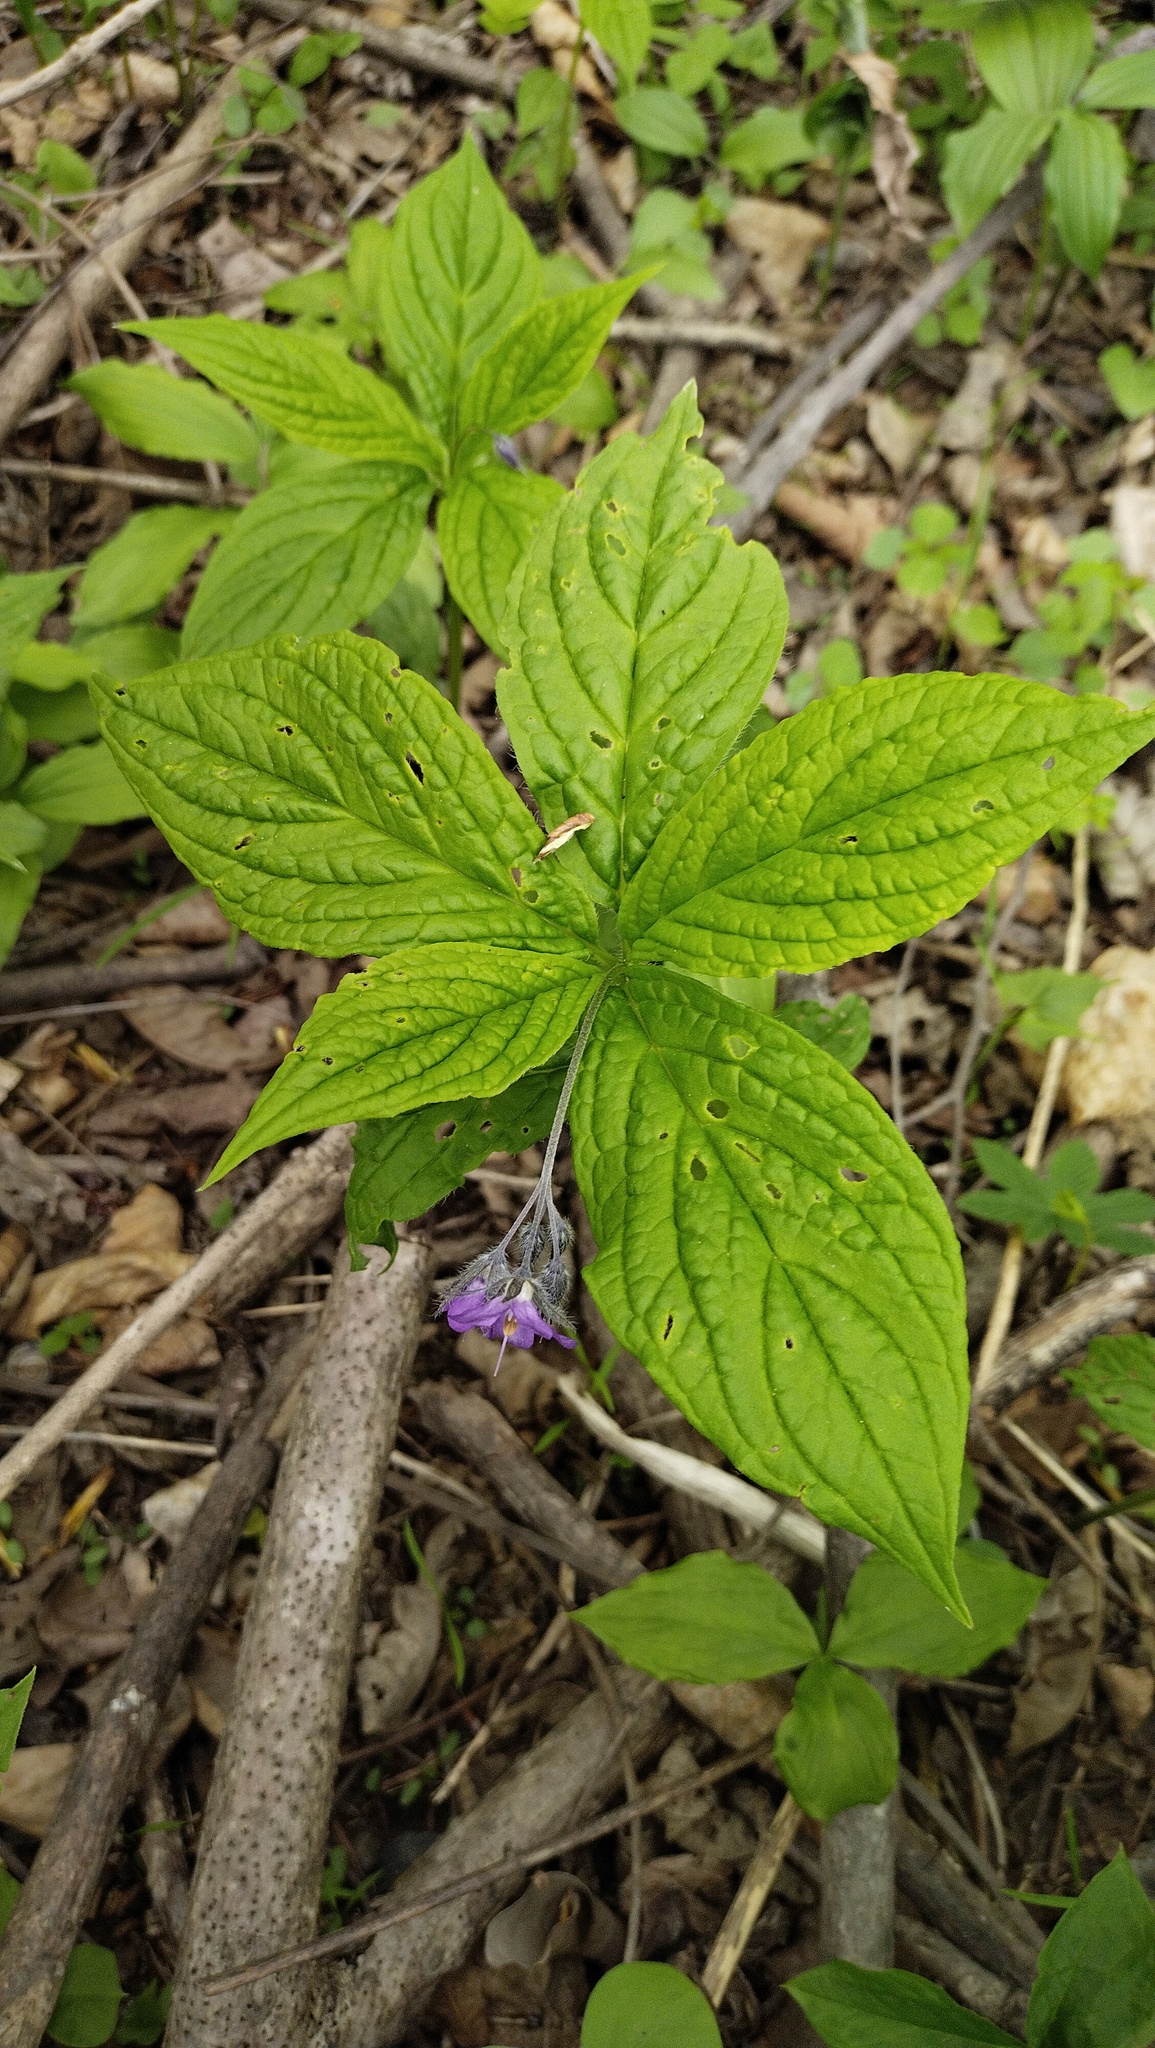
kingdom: Plantae
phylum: Tracheophyta
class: Magnoliopsida
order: Boraginales
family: Boraginaceae
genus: Brachybotrys
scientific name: Brachybotrys paridiformis
